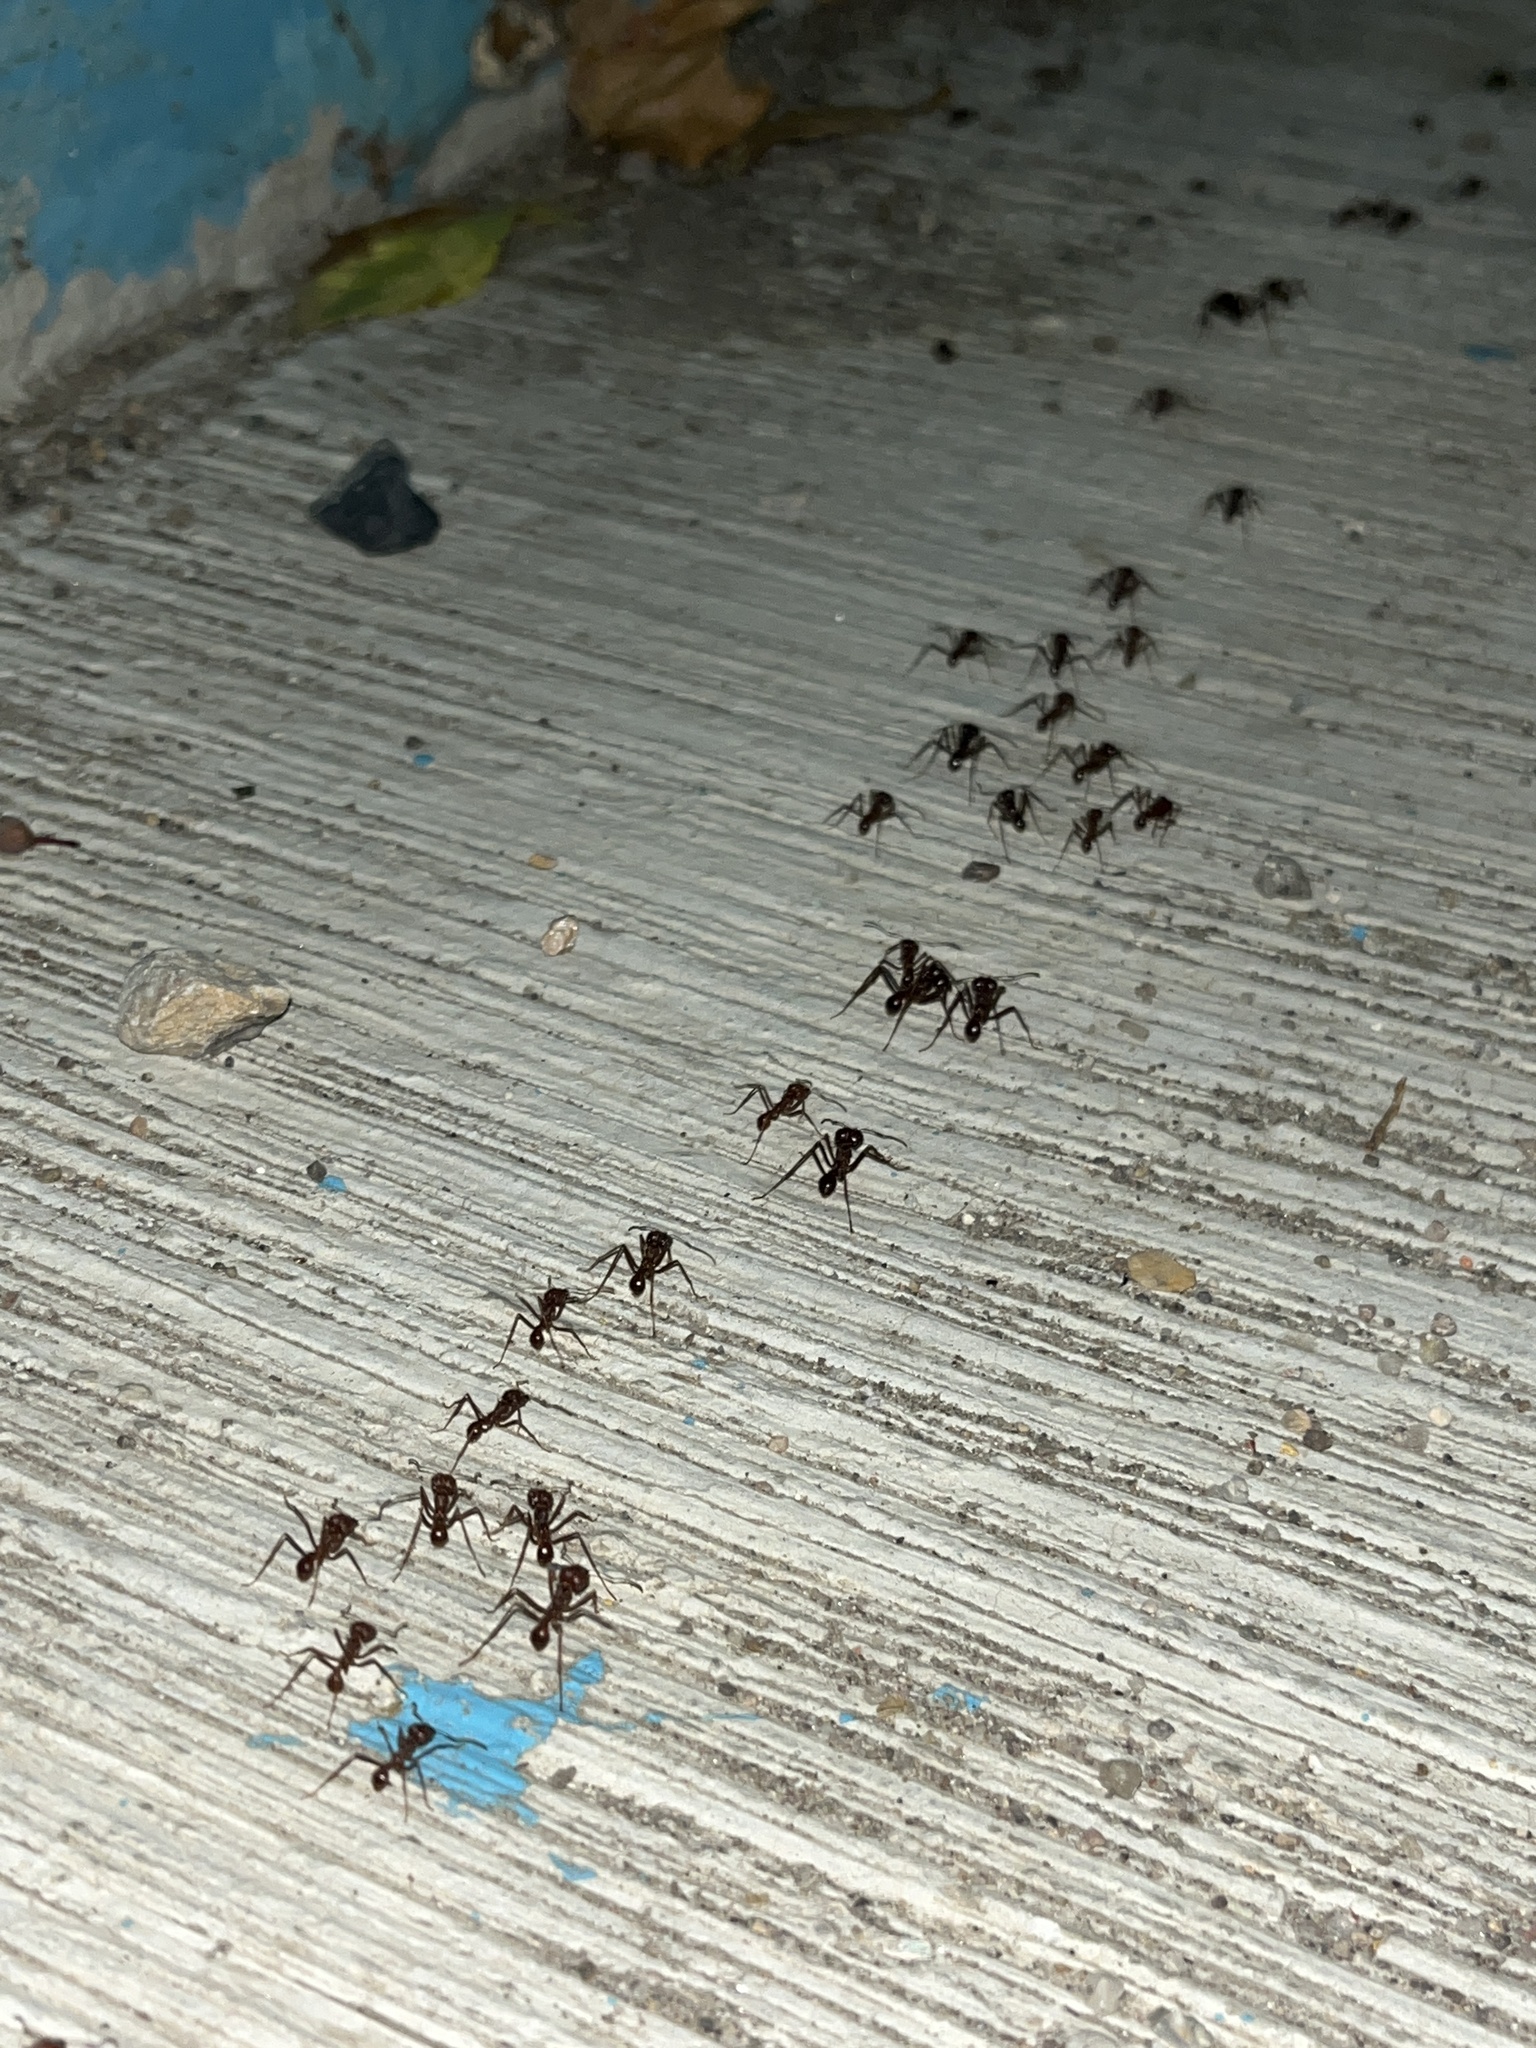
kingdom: Animalia
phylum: Arthropoda
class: Insecta
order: Hymenoptera
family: Formicidae
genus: Atta
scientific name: Atta mexicana
